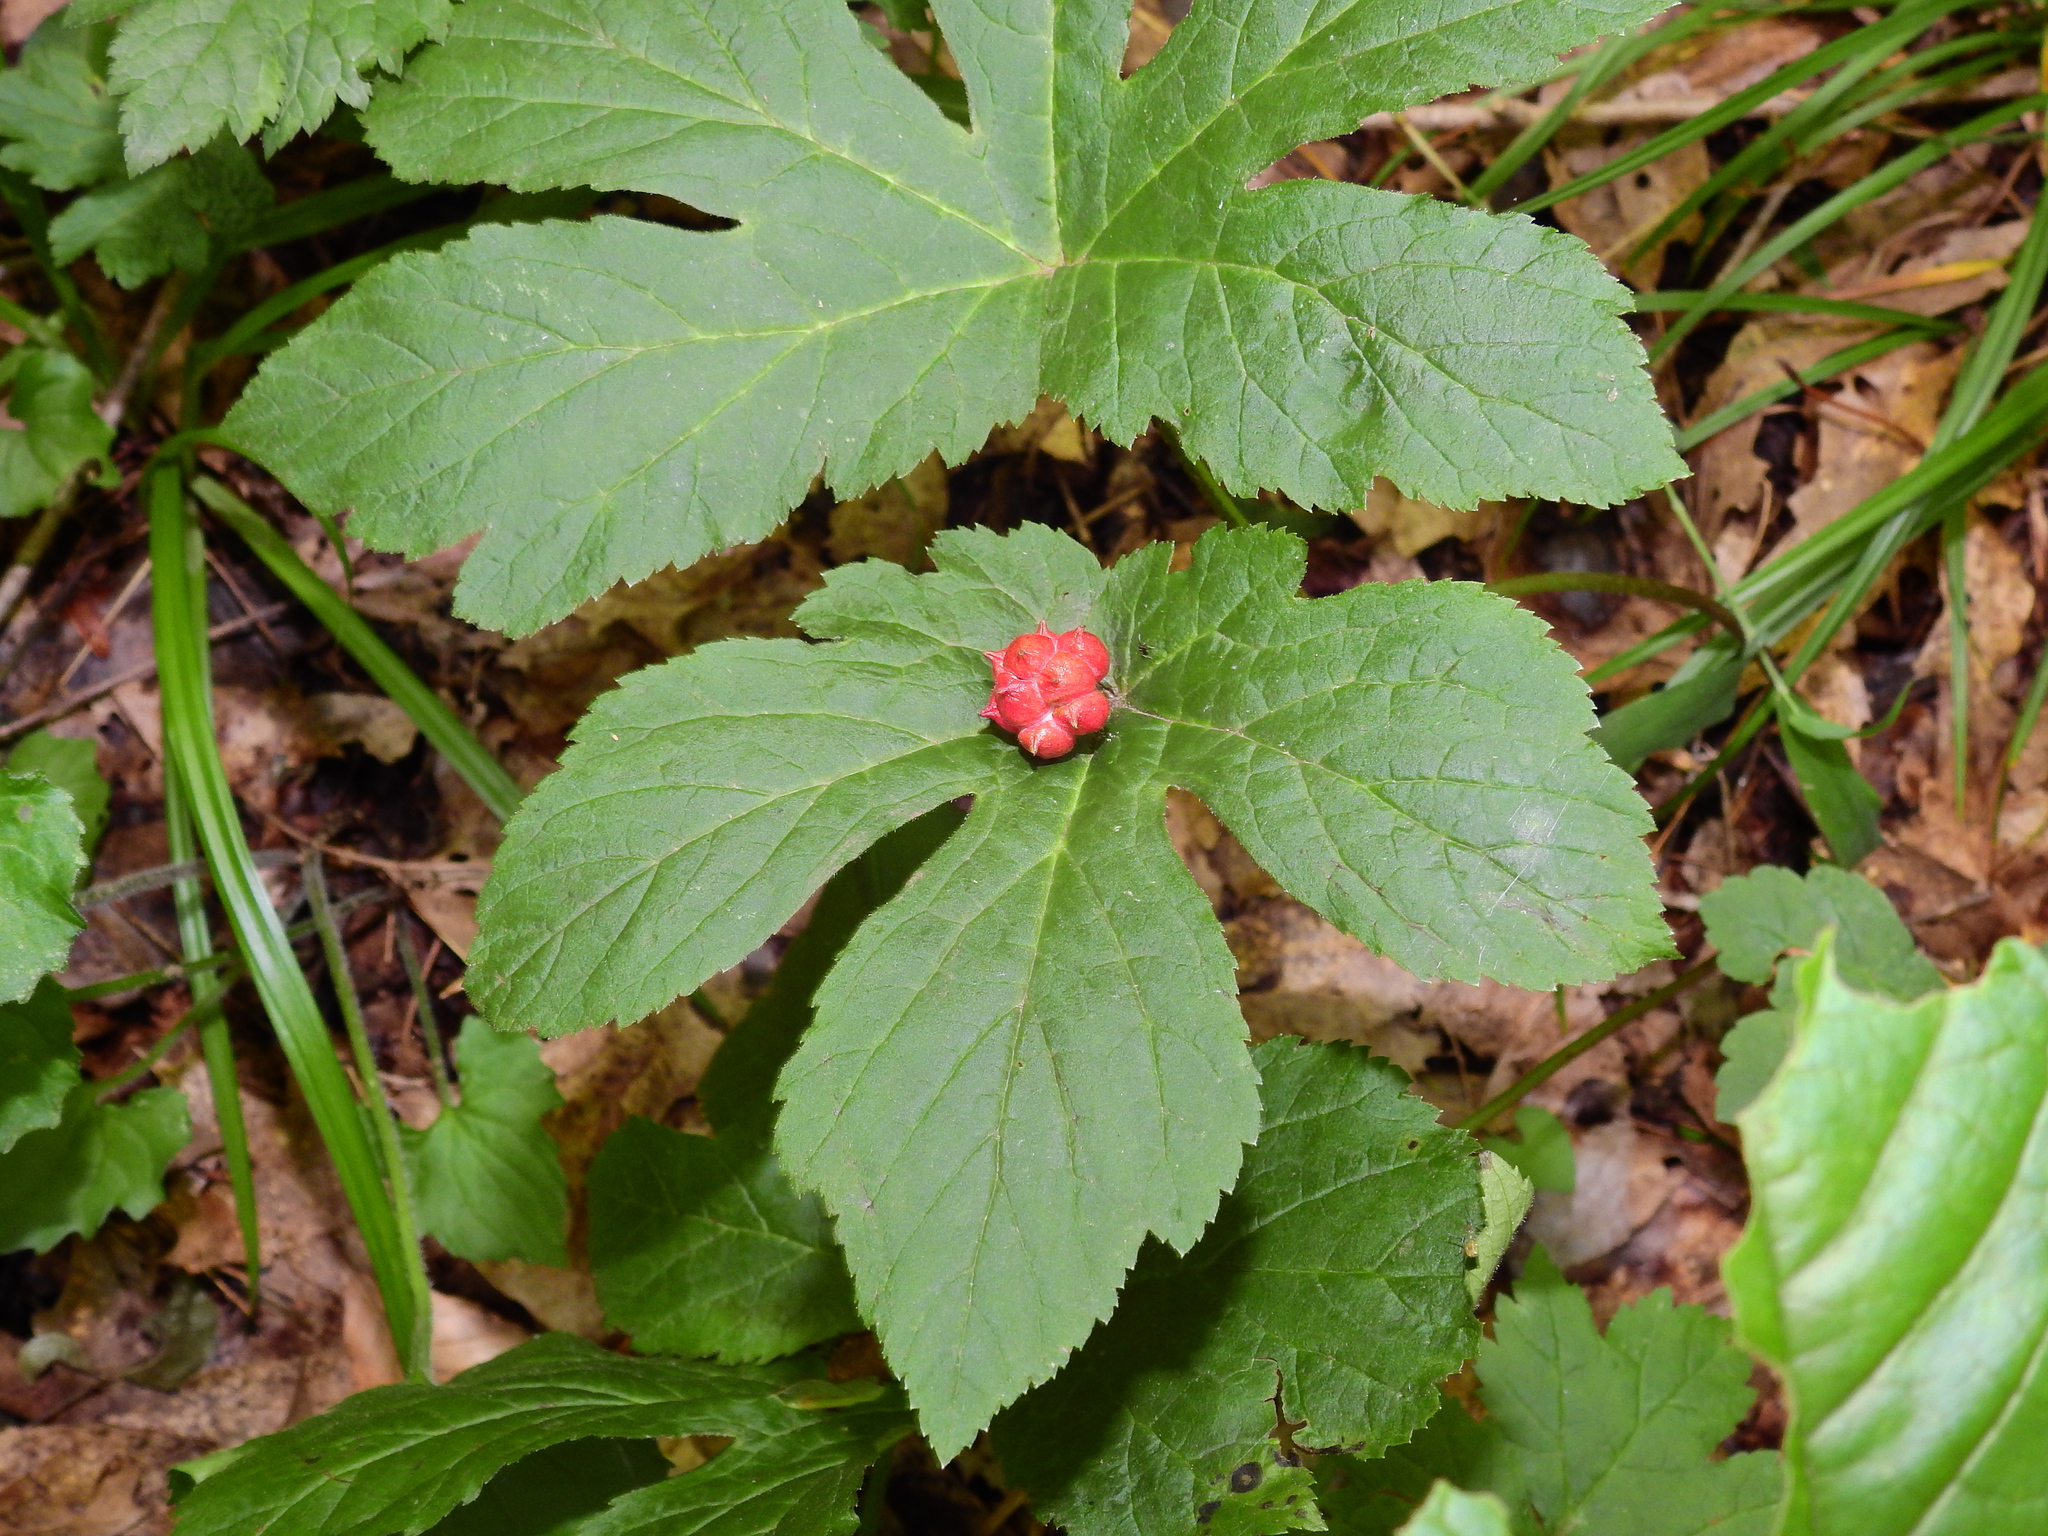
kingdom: Plantae
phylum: Tracheophyta
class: Magnoliopsida
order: Ranunculales
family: Ranunculaceae
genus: Hydrastis
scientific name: Hydrastis canadensis
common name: Goldenseal
